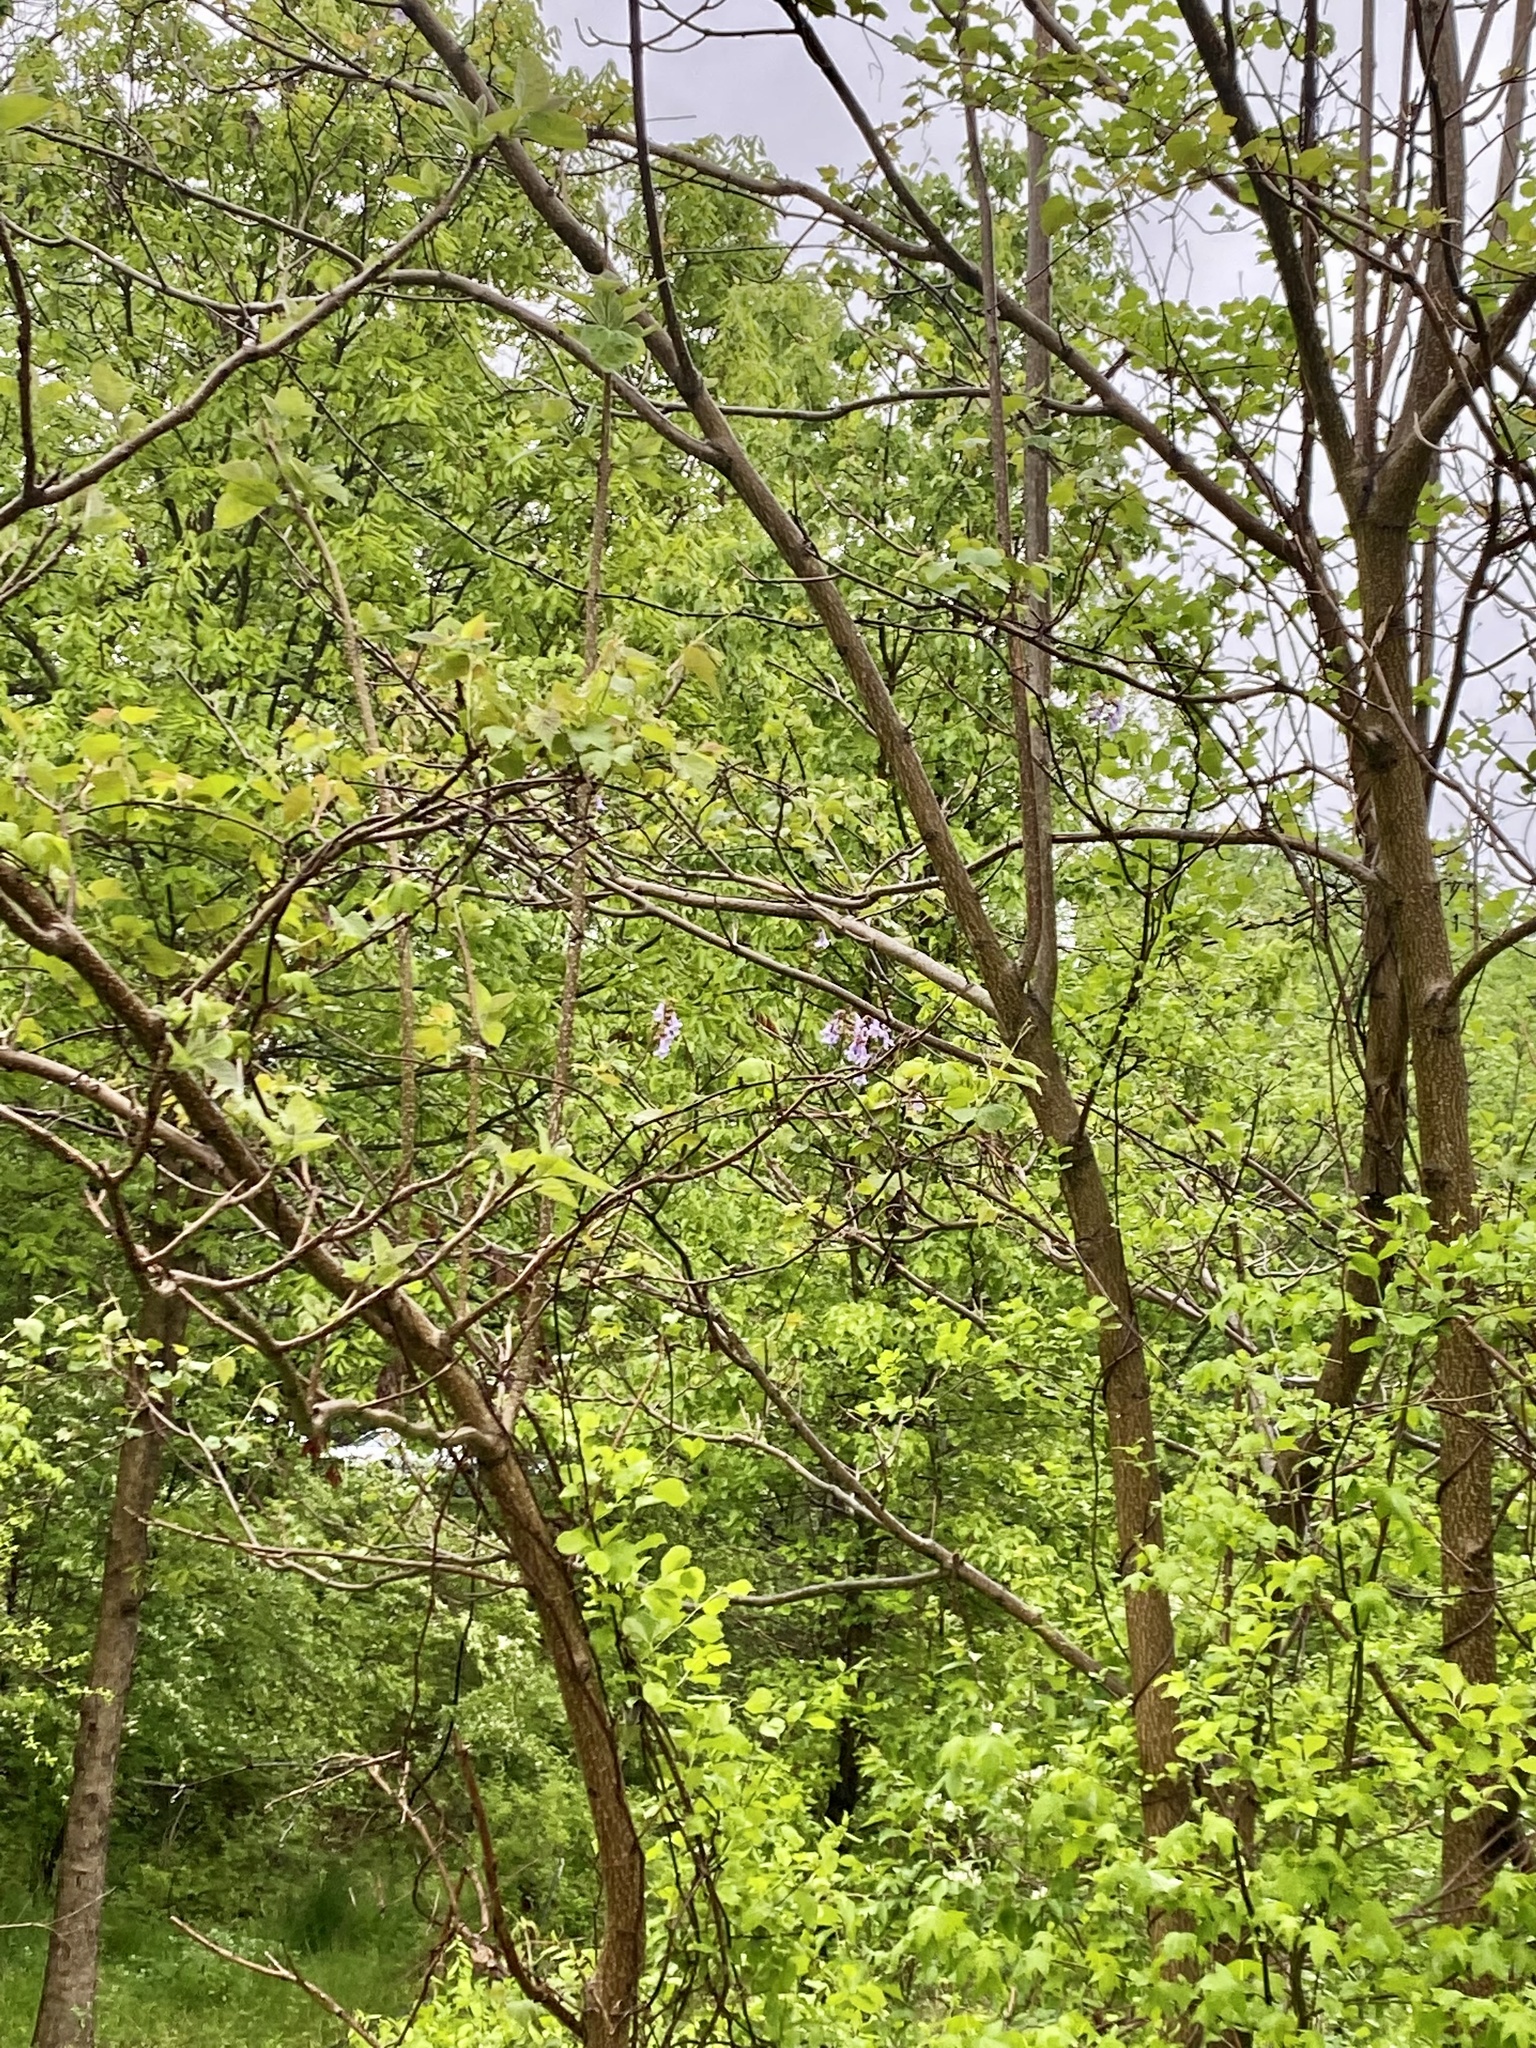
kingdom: Plantae
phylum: Tracheophyta
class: Magnoliopsida
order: Lamiales
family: Paulowniaceae
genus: Paulownia
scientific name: Paulownia tomentosa
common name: Foxglove-tree
